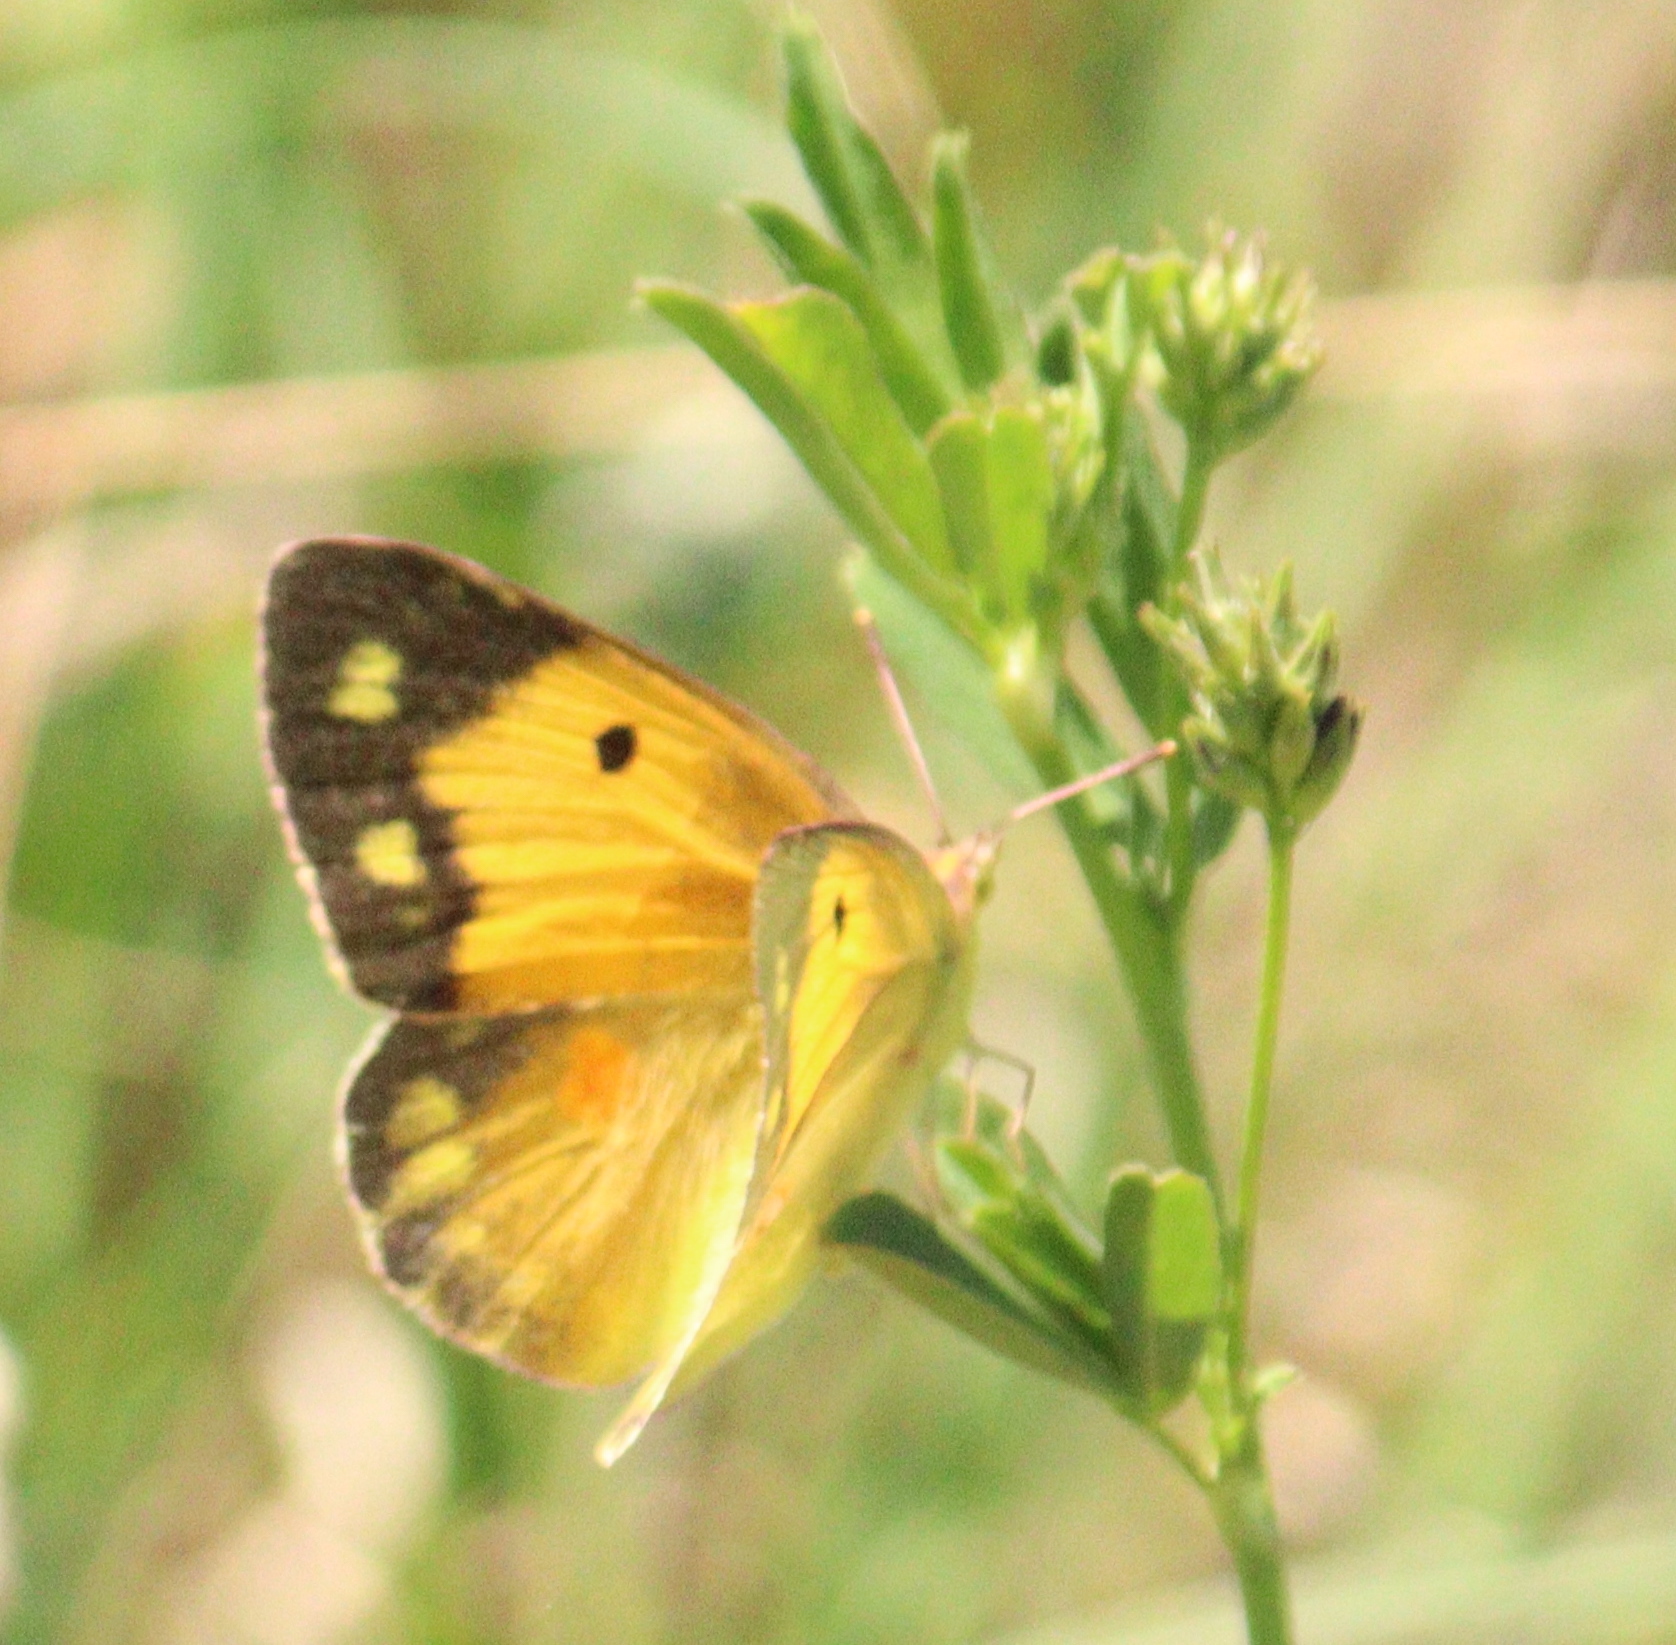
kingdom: Animalia
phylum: Arthropoda
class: Insecta
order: Lepidoptera
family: Pieridae
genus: Colias
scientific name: Colias croceus
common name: Clouded yellow
